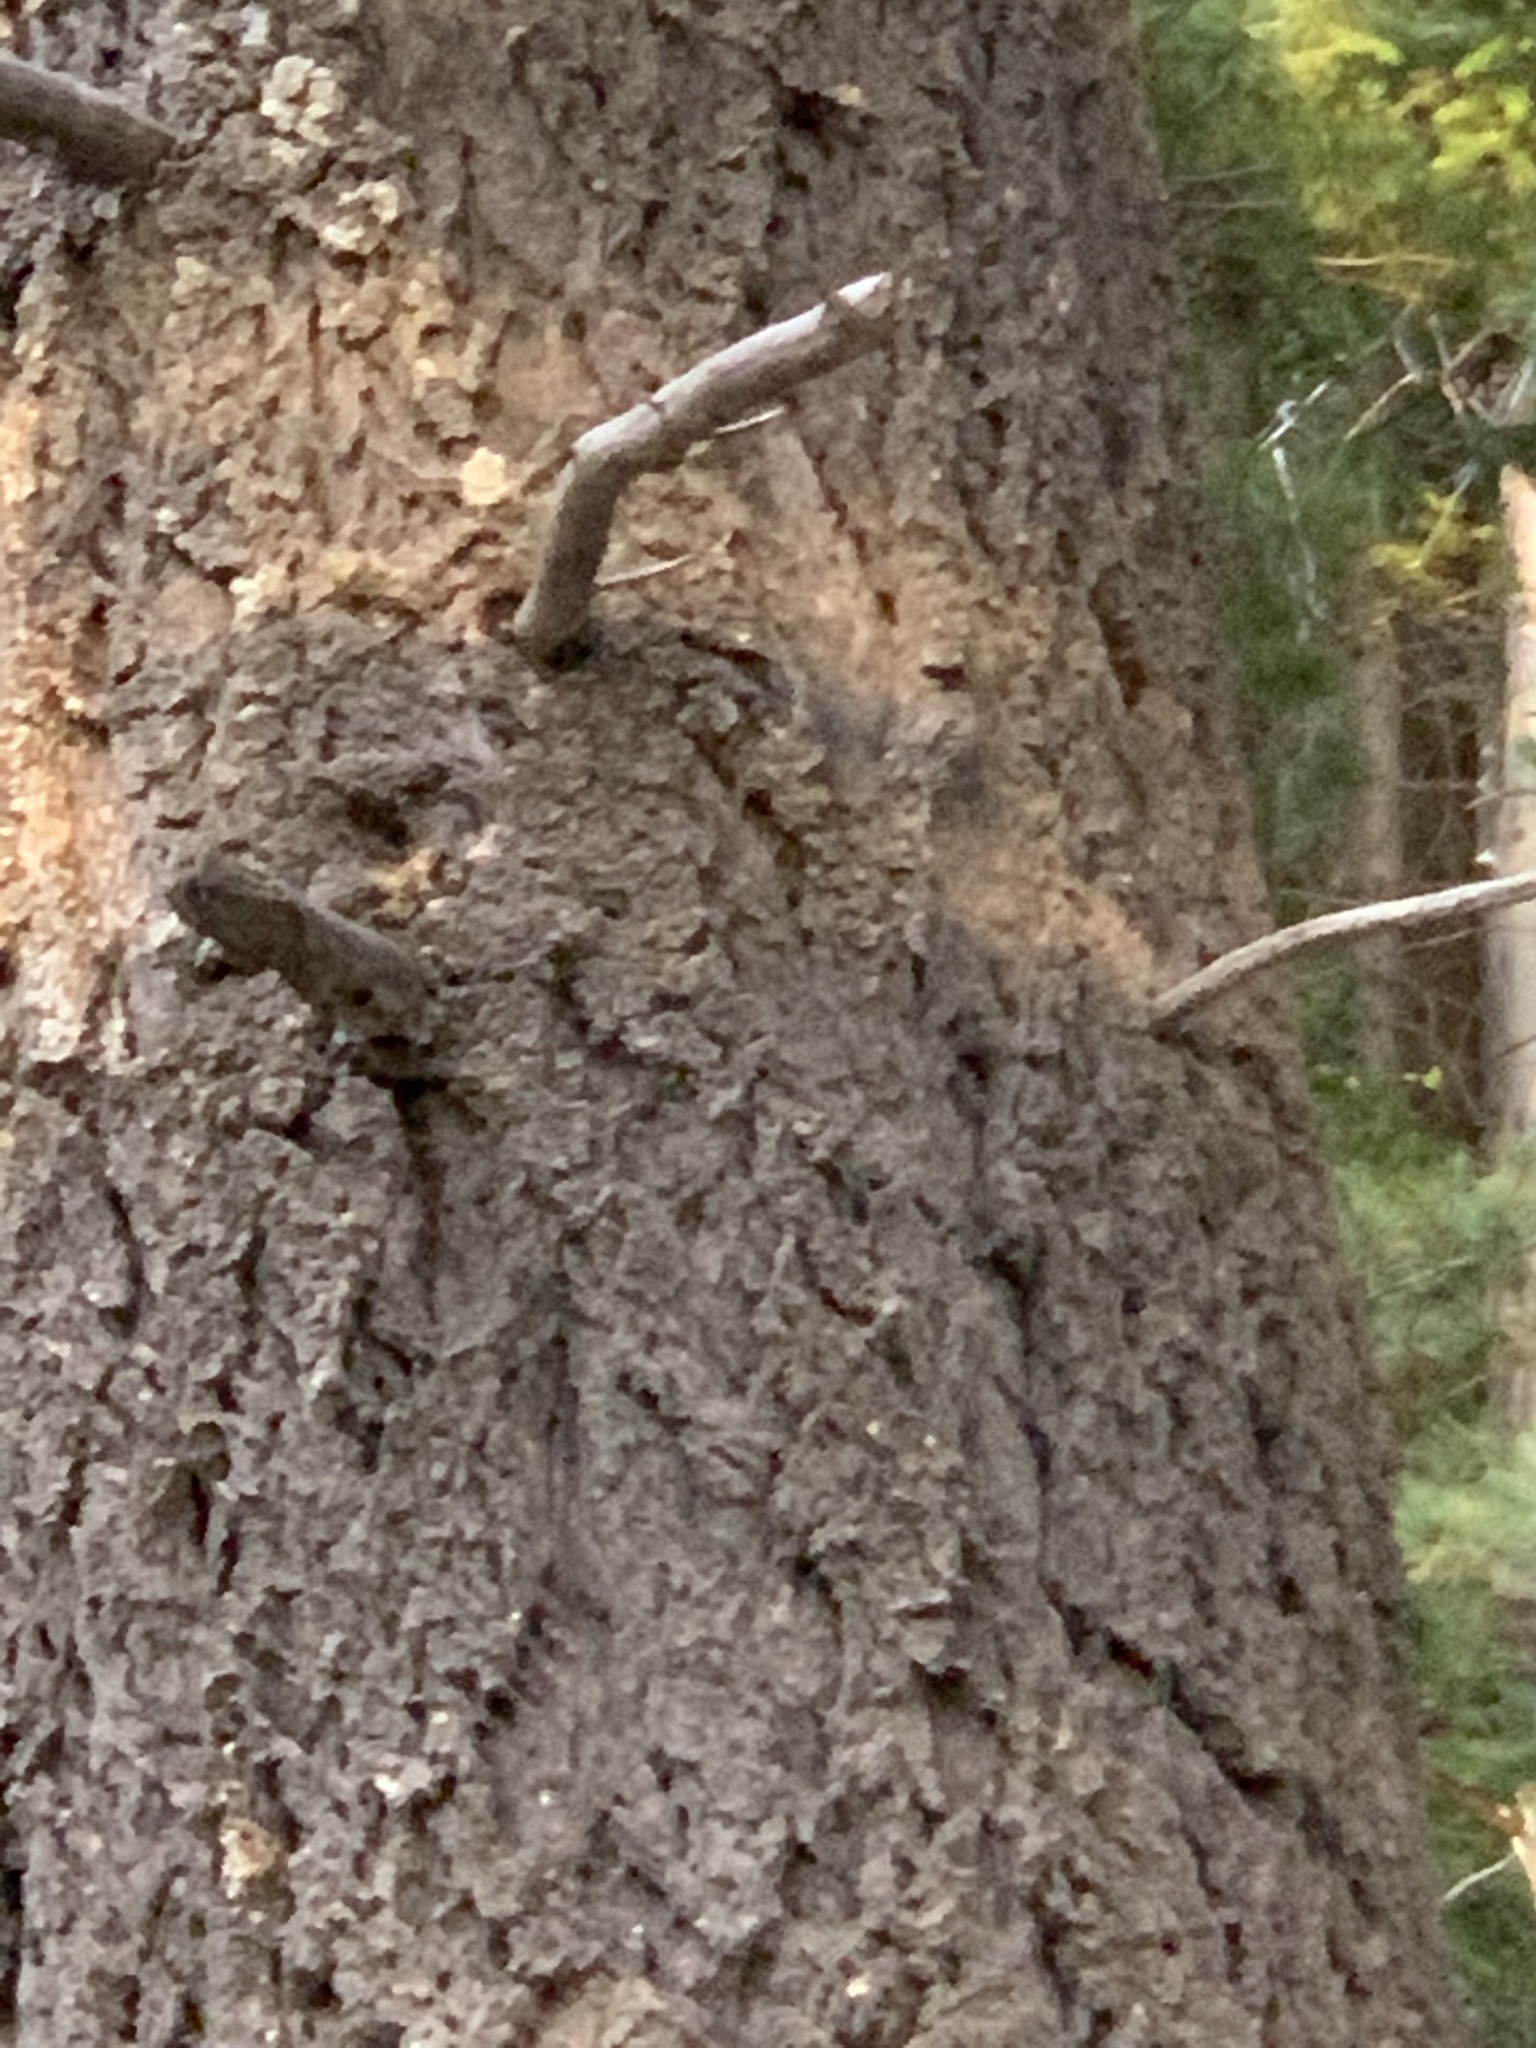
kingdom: Plantae
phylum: Tracheophyta
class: Pinopsida
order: Pinales
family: Pinaceae
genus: Pseudotsuga
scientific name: Pseudotsuga menziesii
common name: Douglas fir
